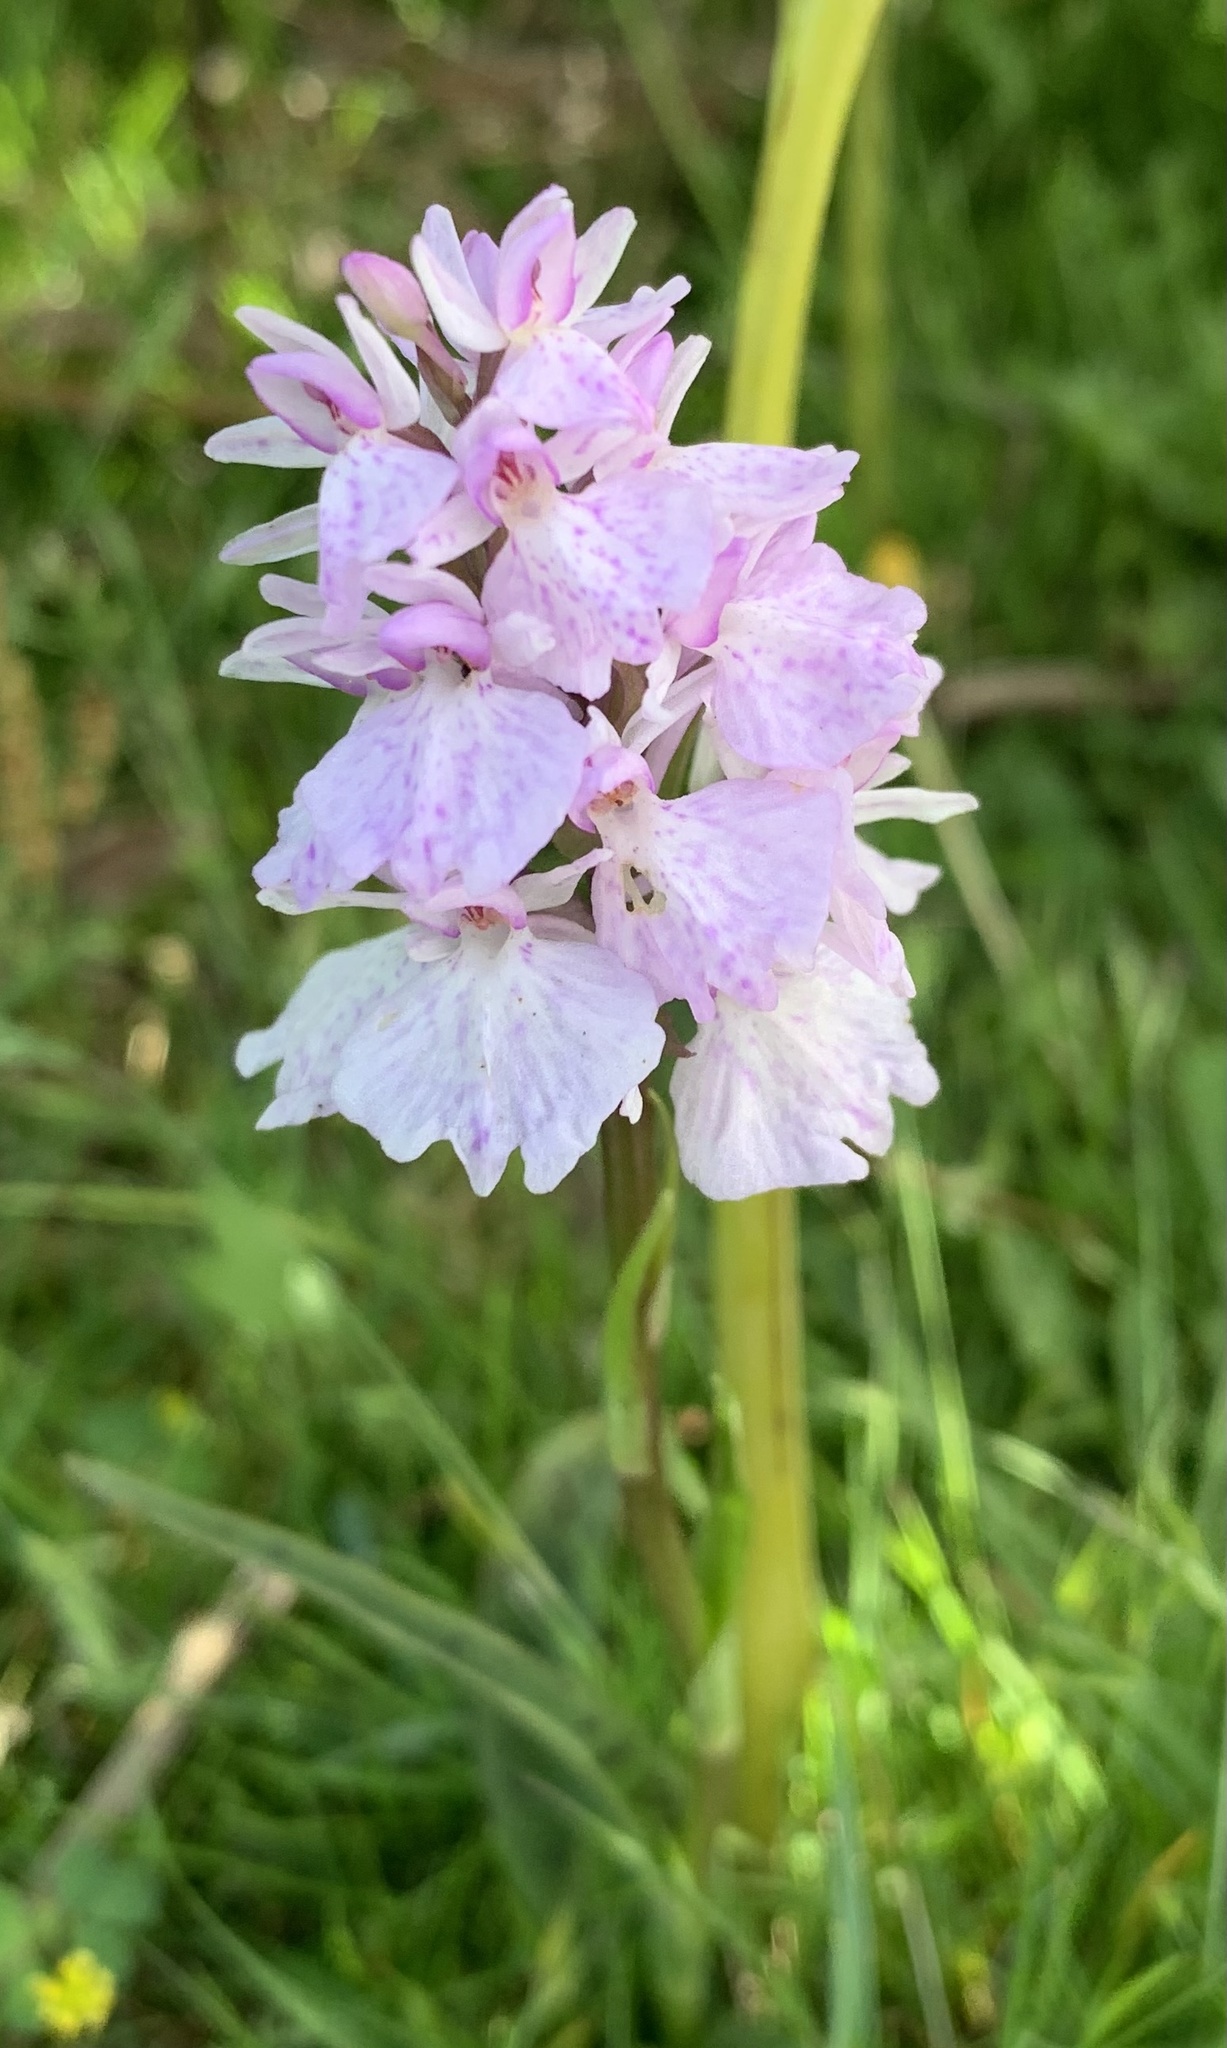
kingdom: Plantae
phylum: Tracheophyta
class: Liliopsida
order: Asparagales
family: Orchidaceae
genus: Dactylorhiza
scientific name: Dactylorhiza maculata
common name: Heath spotted-orchid
